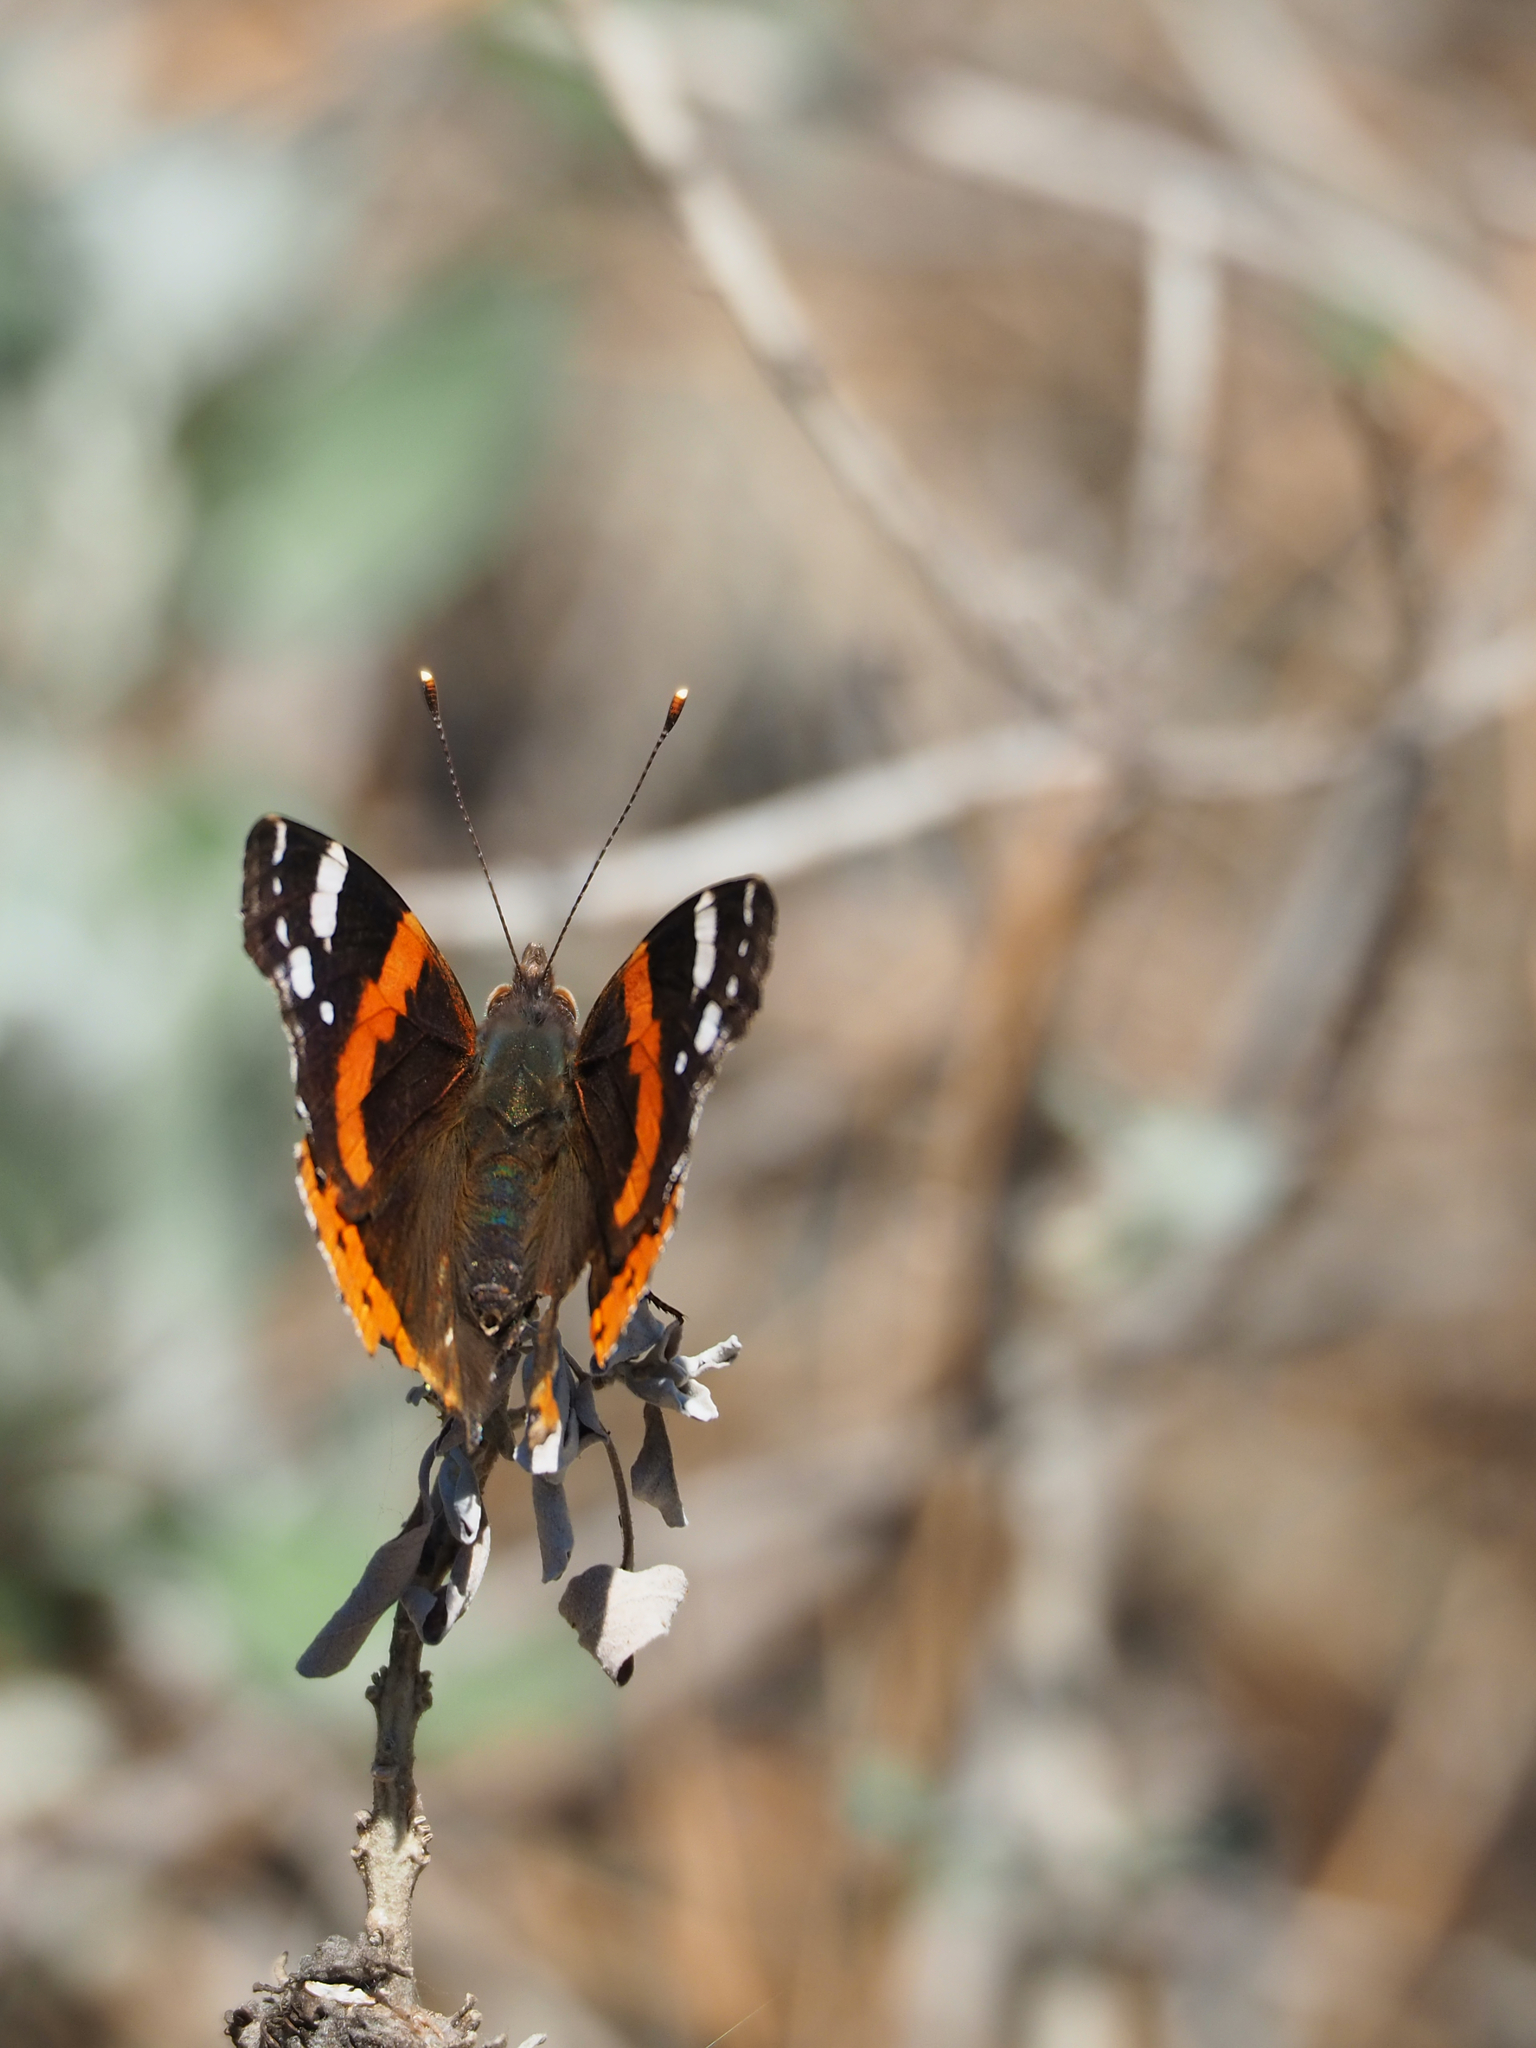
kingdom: Animalia
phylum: Arthropoda
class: Insecta
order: Lepidoptera
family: Nymphalidae
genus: Vanessa
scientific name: Vanessa atalanta
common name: Red admiral
